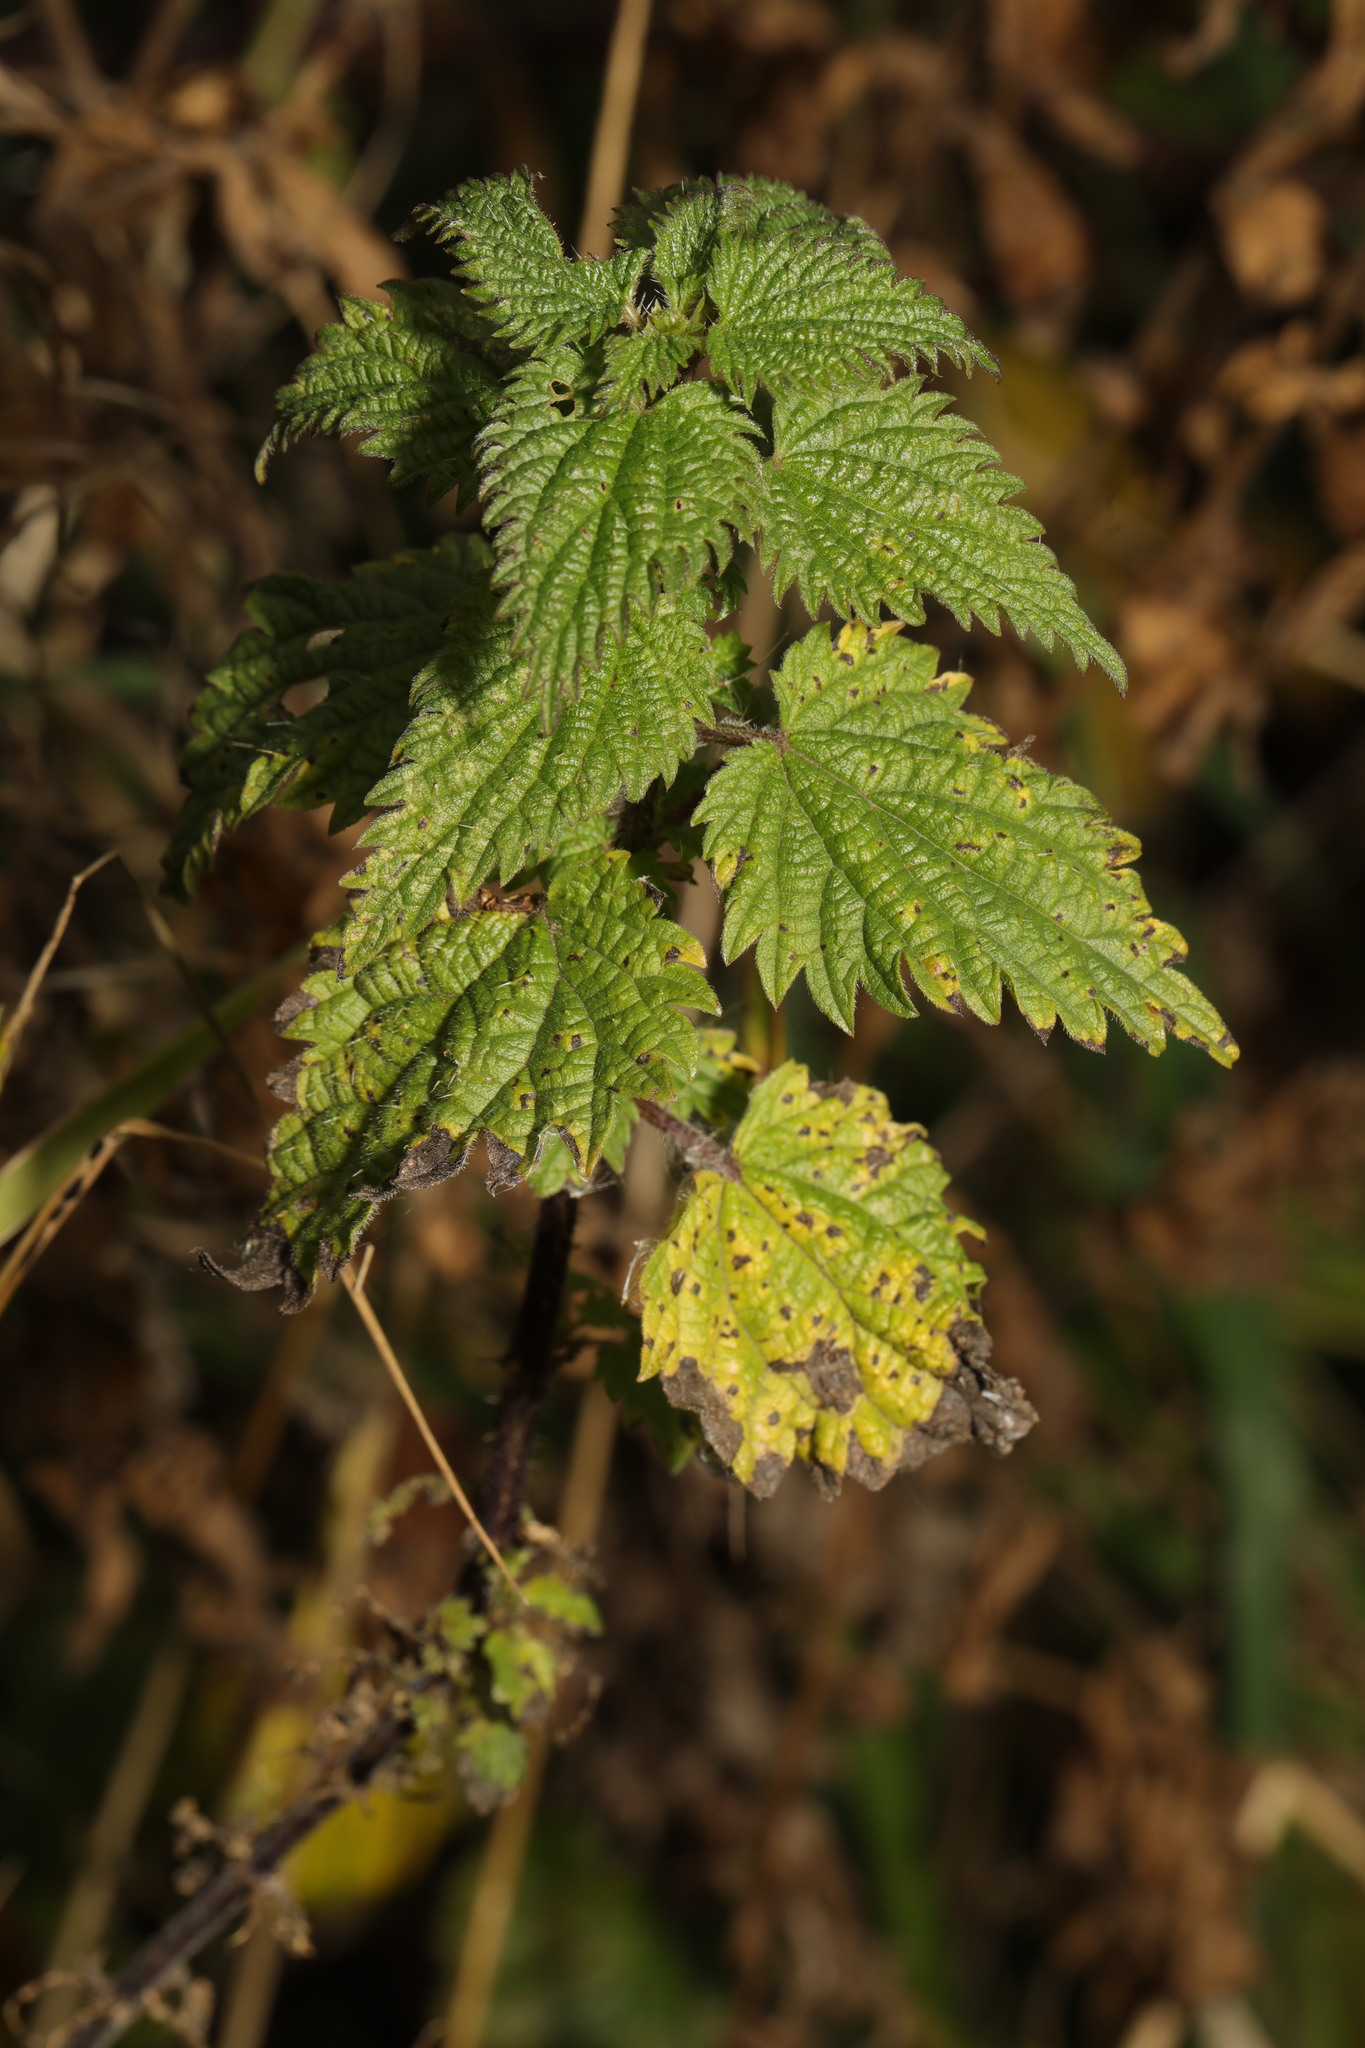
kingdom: Plantae
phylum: Tracheophyta
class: Magnoliopsida
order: Rosales
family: Urticaceae
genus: Urtica
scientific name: Urtica dioica
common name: Common nettle
